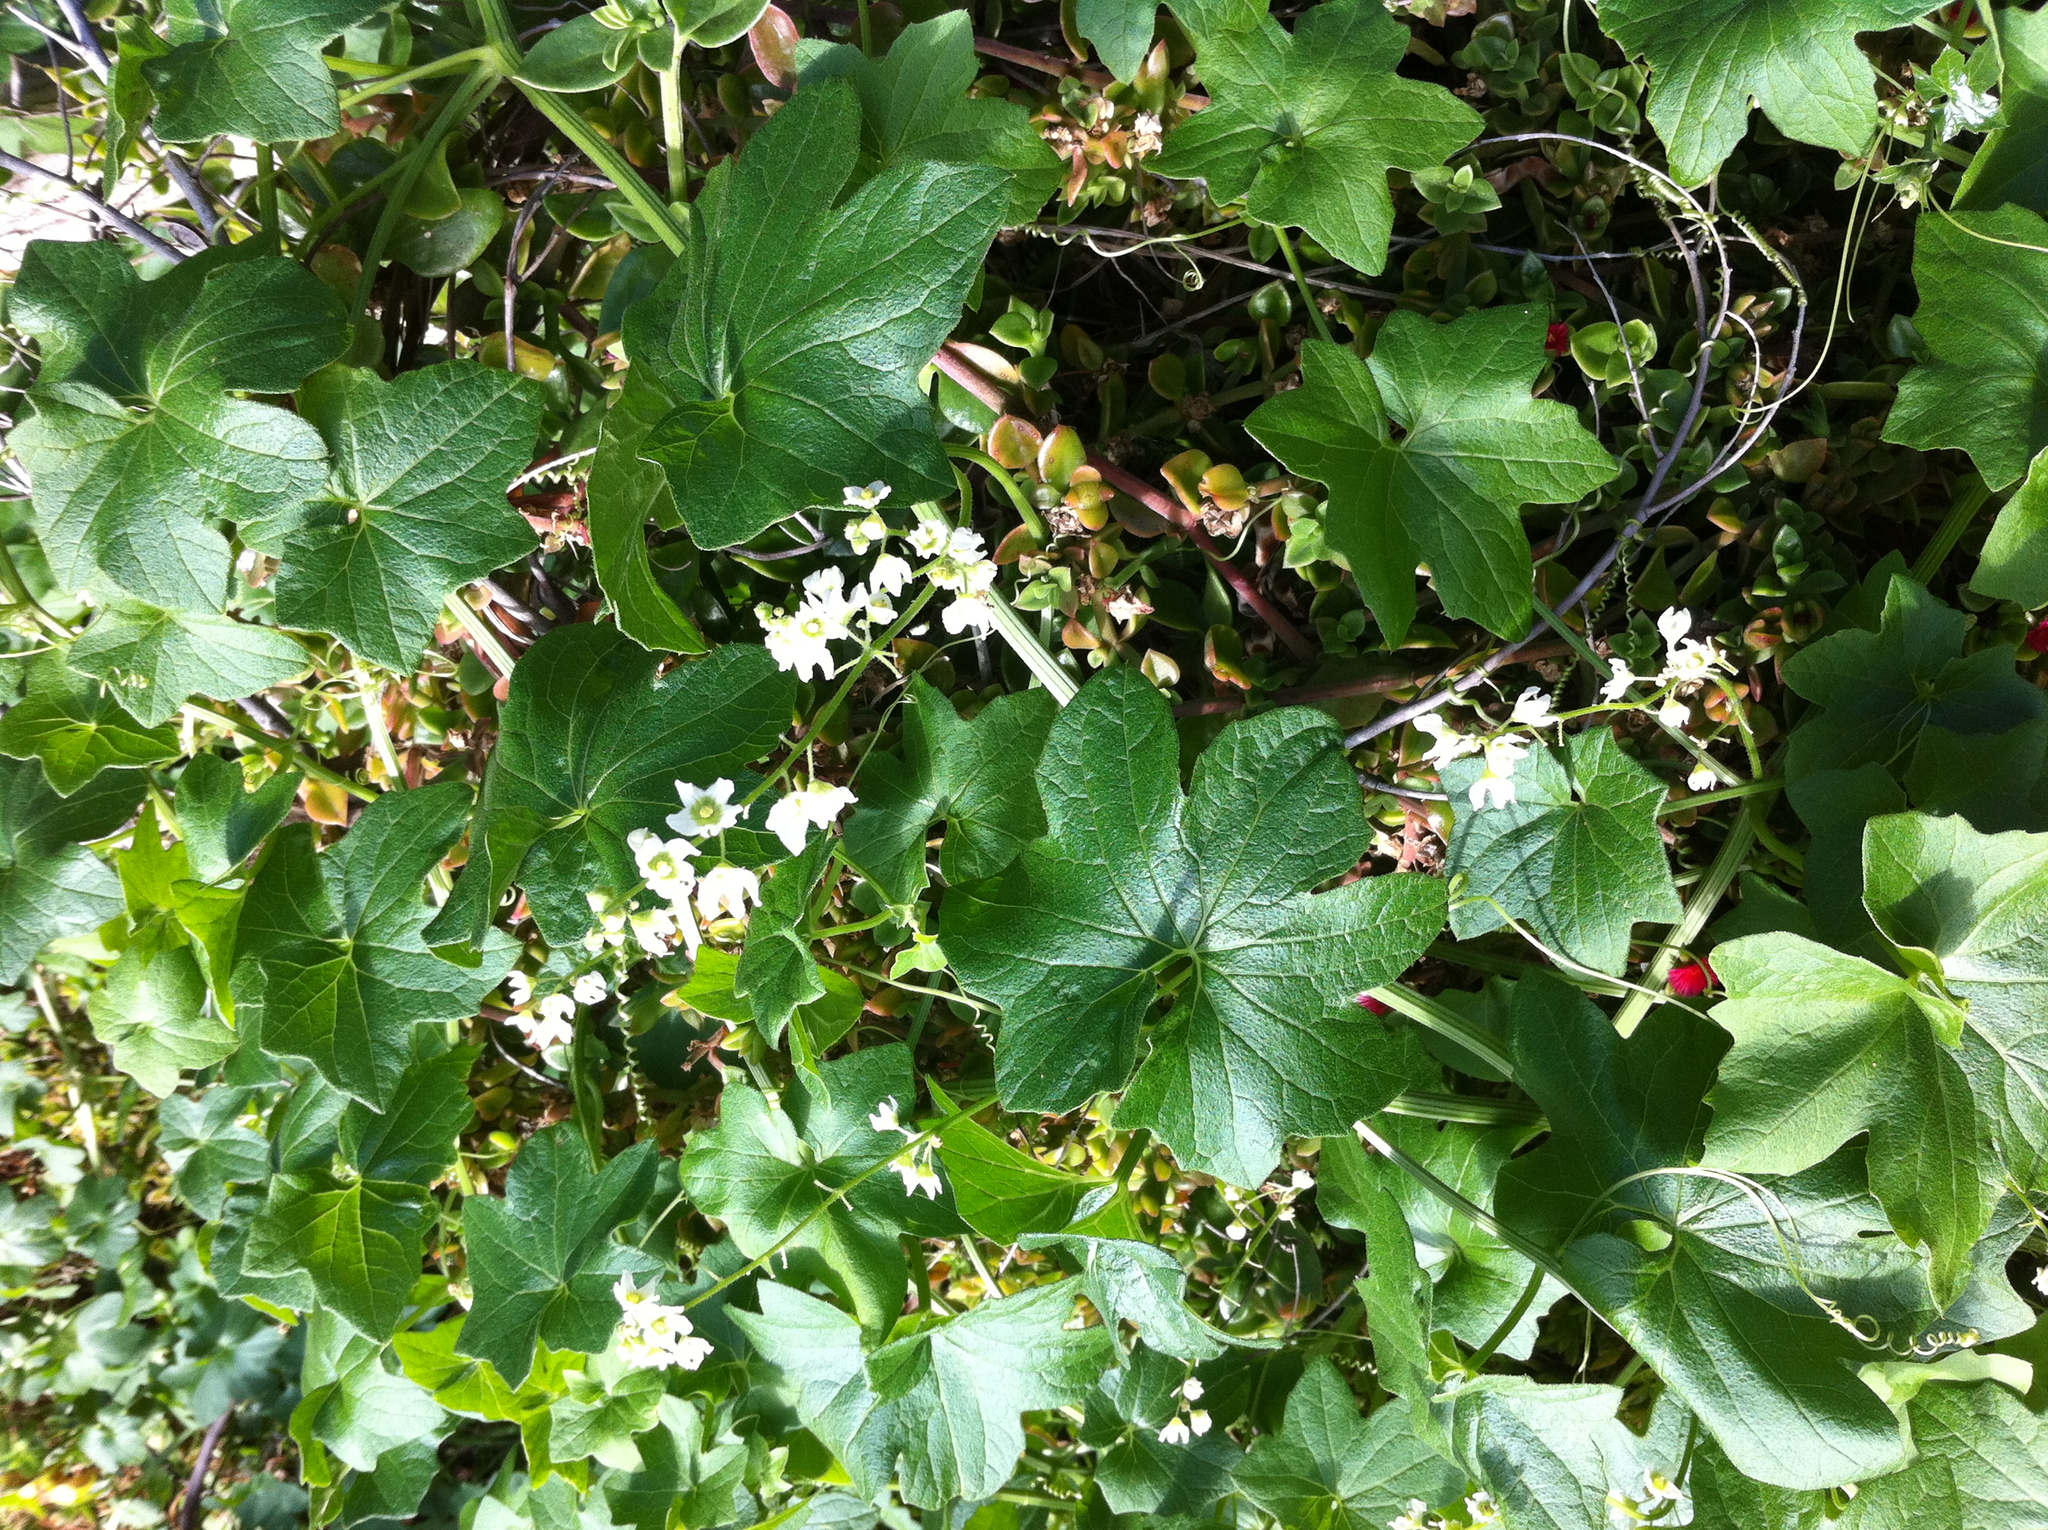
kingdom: Plantae
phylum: Tracheophyta
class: Magnoliopsida
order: Cucurbitales
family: Cucurbitaceae
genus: Marah
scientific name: Marah macrocarpa
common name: Cucamonga manroot
